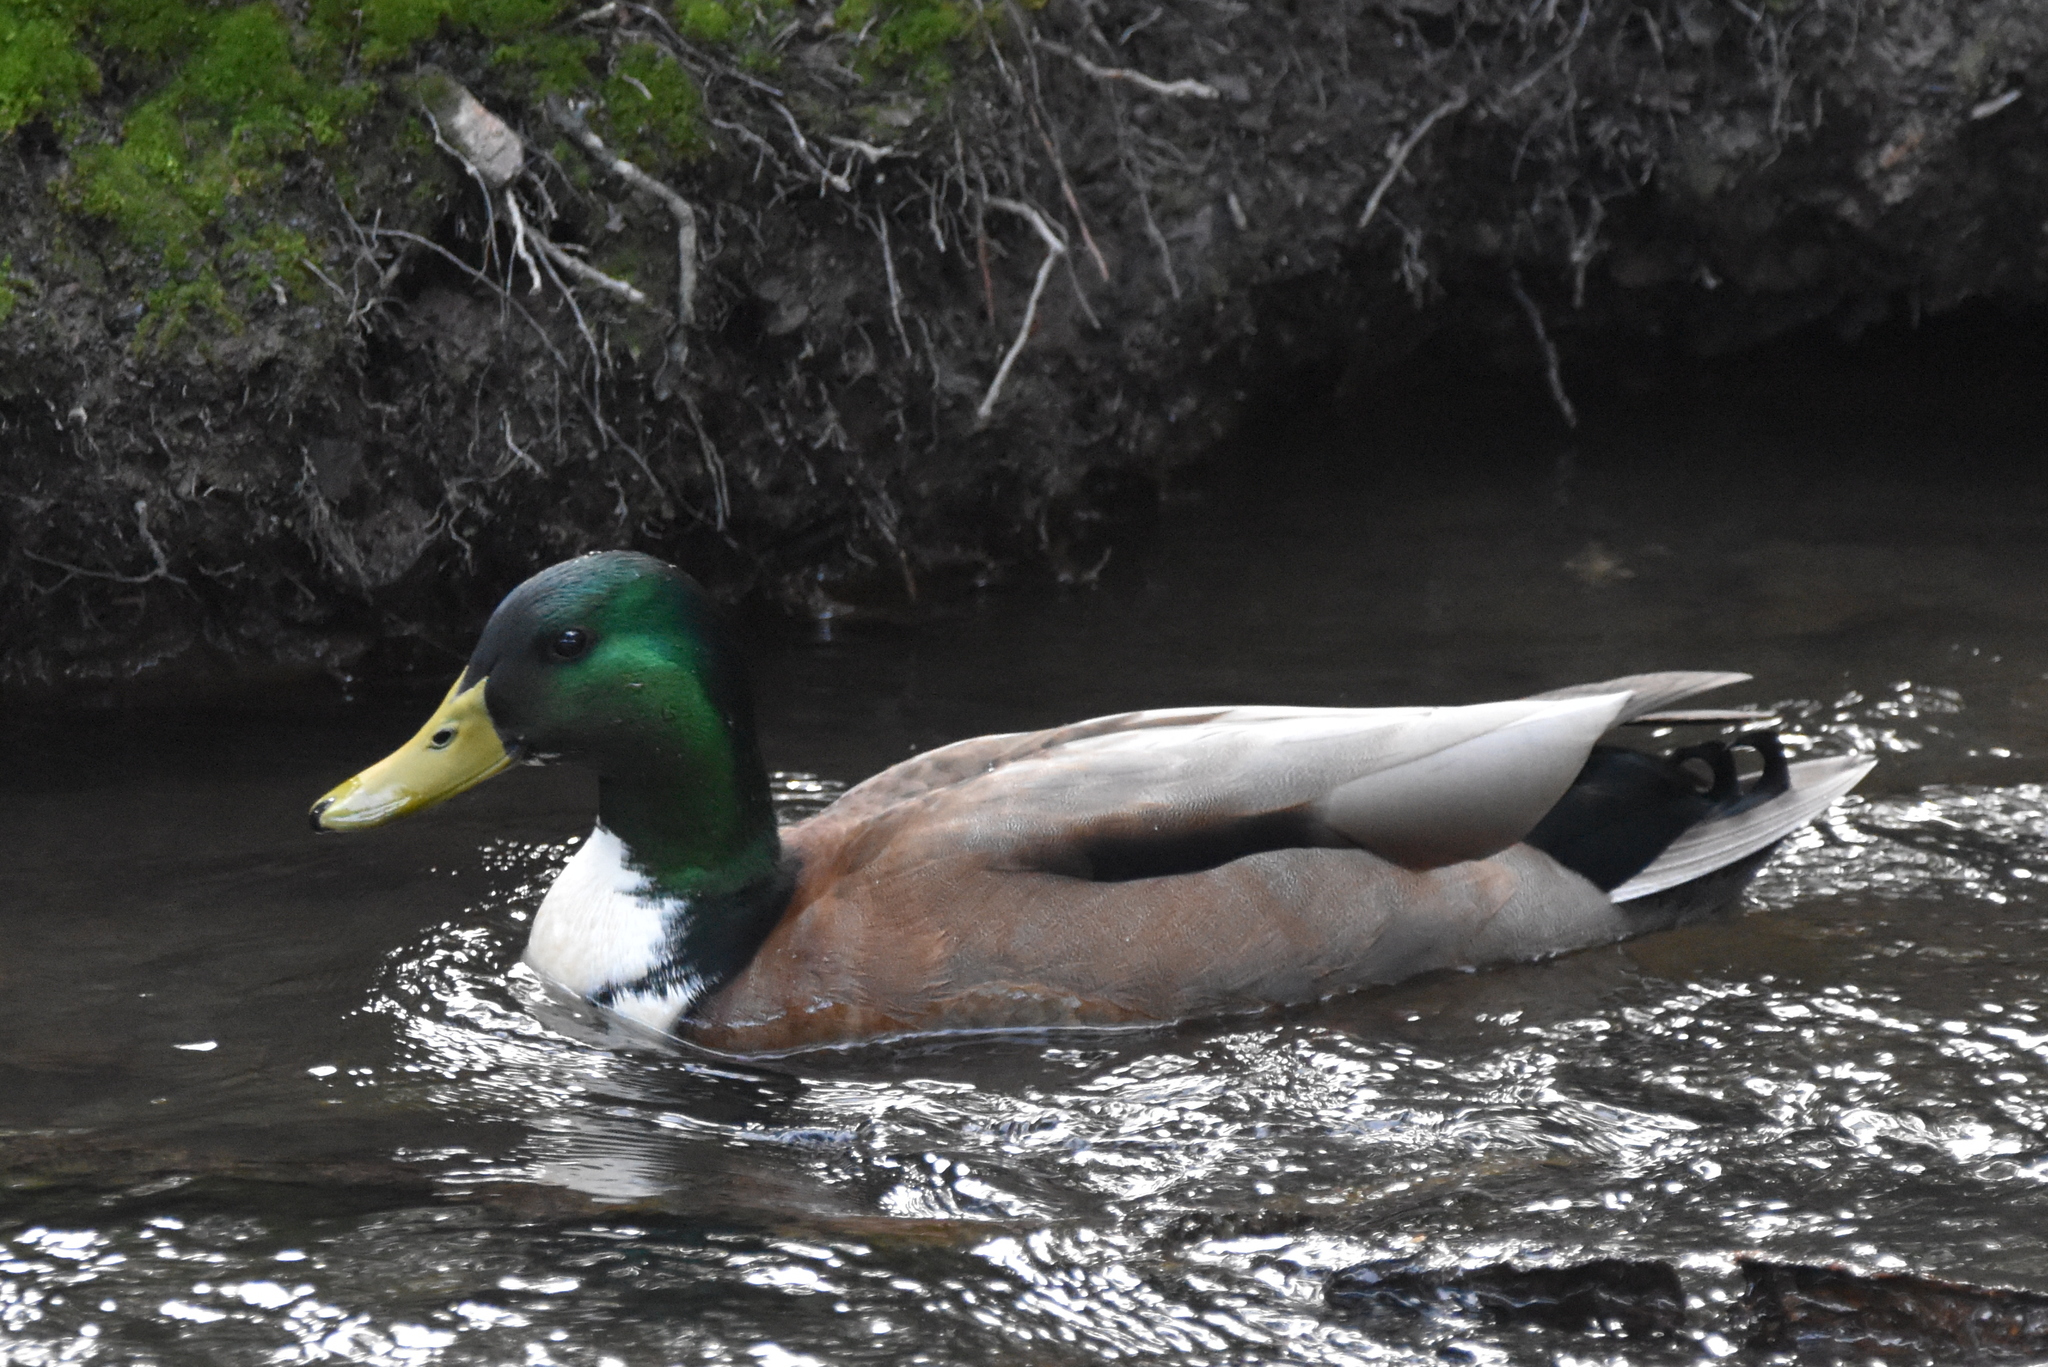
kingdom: Animalia
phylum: Chordata
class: Aves
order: Anseriformes
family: Anatidae
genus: Anas
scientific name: Anas platyrhynchos
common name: Mallard
